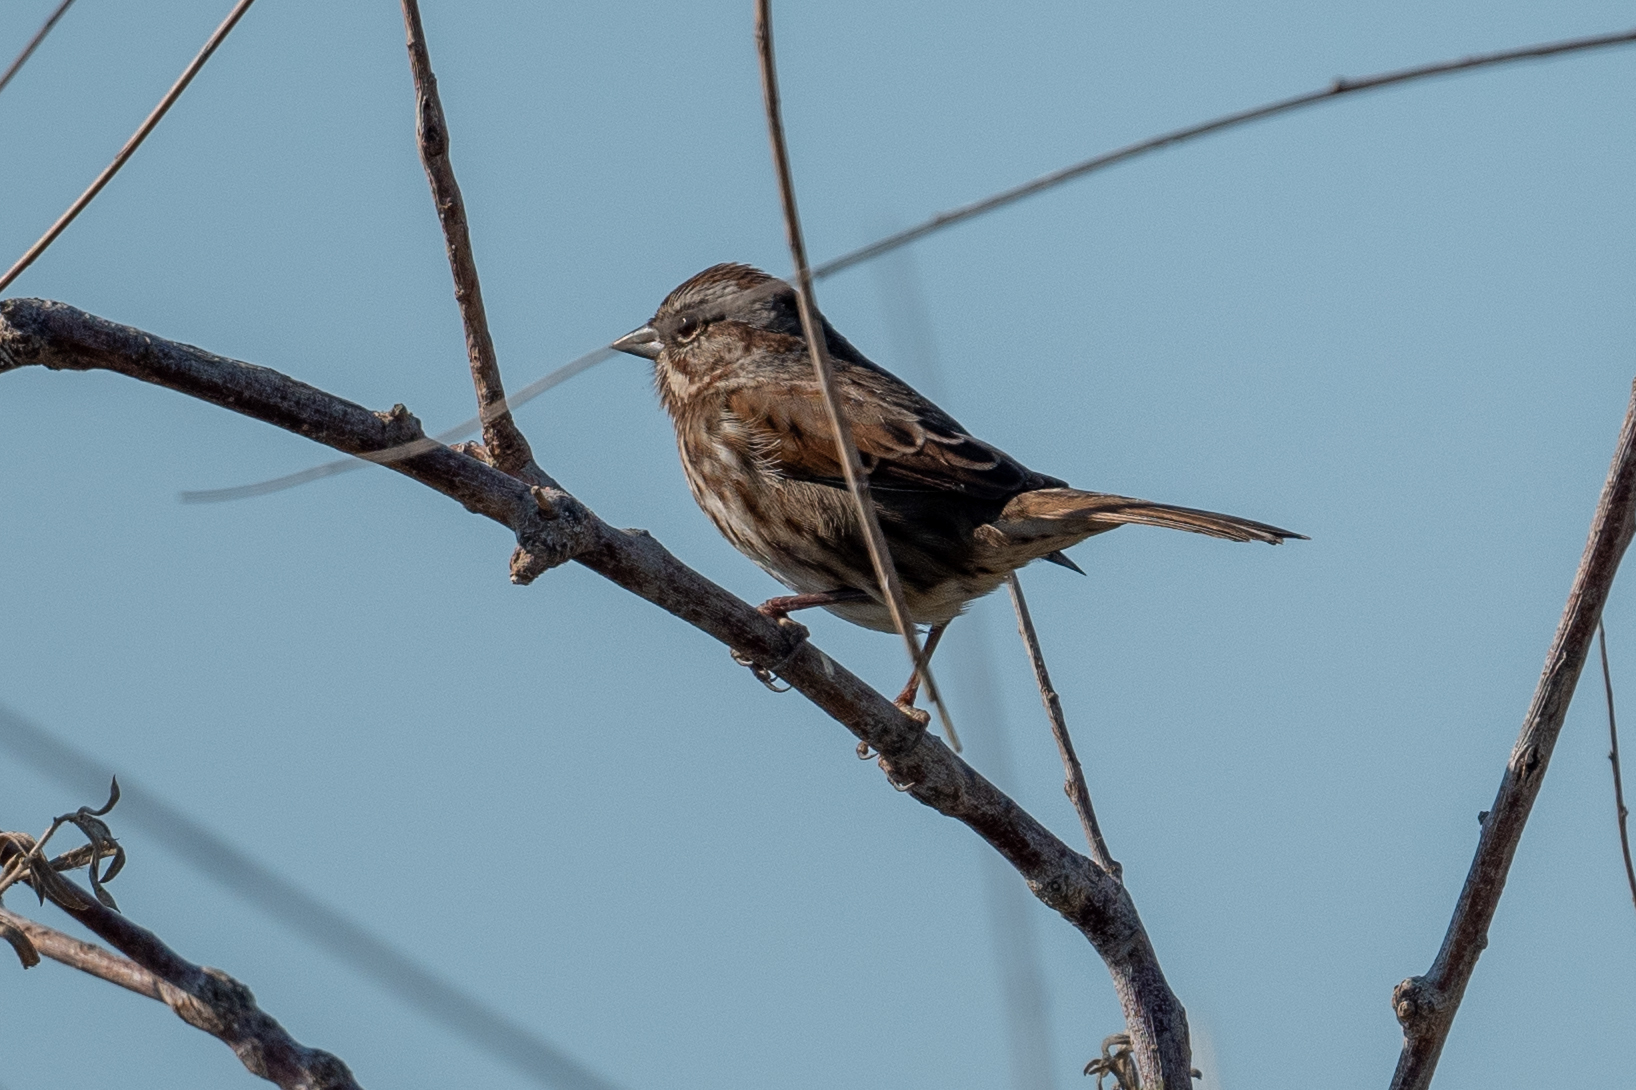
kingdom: Animalia
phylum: Chordata
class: Aves
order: Passeriformes
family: Passerellidae
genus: Melospiza
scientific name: Melospiza melodia
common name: Song sparrow
